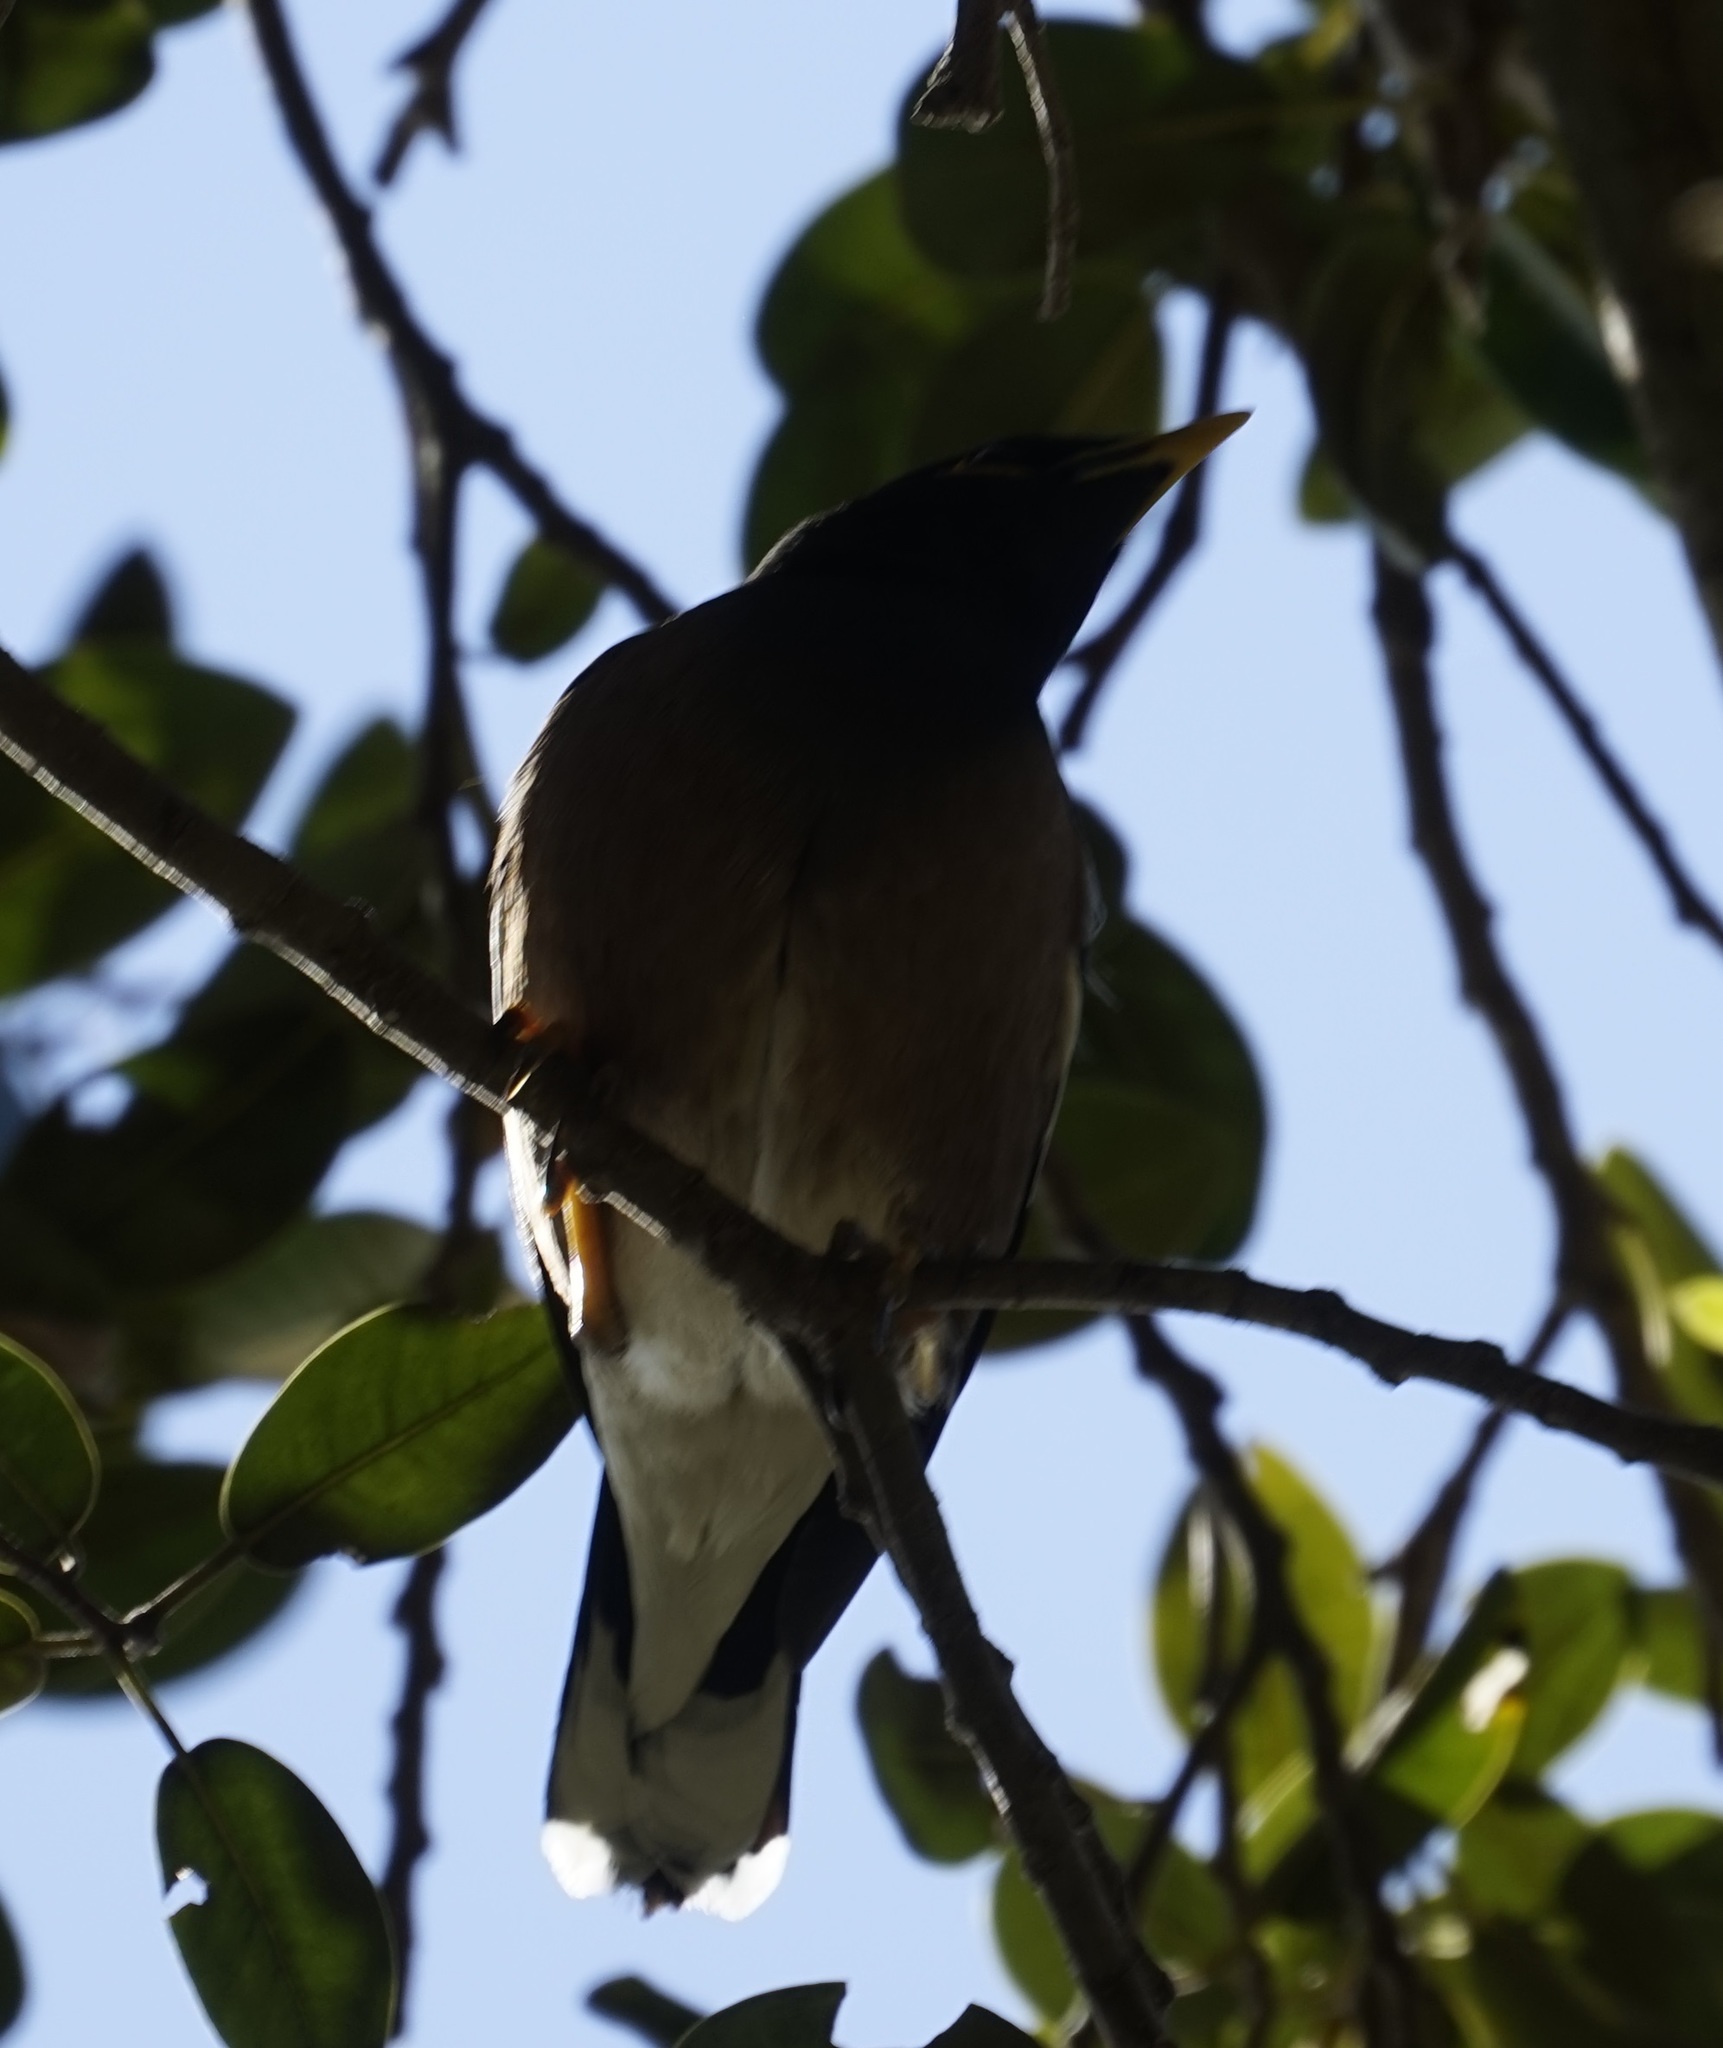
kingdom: Animalia
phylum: Chordata
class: Aves
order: Passeriformes
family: Sturnidae
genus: Acridotheres
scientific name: Acridotheres tristis
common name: Common myna
